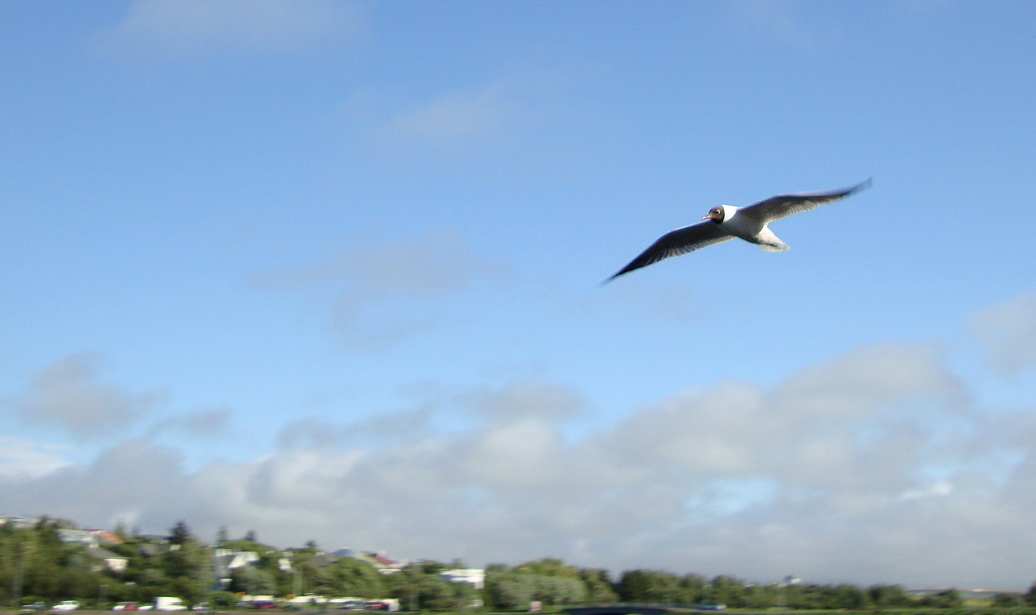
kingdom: Animalia
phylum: Chordata
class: Aves
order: Charadriiformes
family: Laridae
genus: Chroicocephalus
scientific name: Chroicocephalus ridibundus
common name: Black-headed gull
